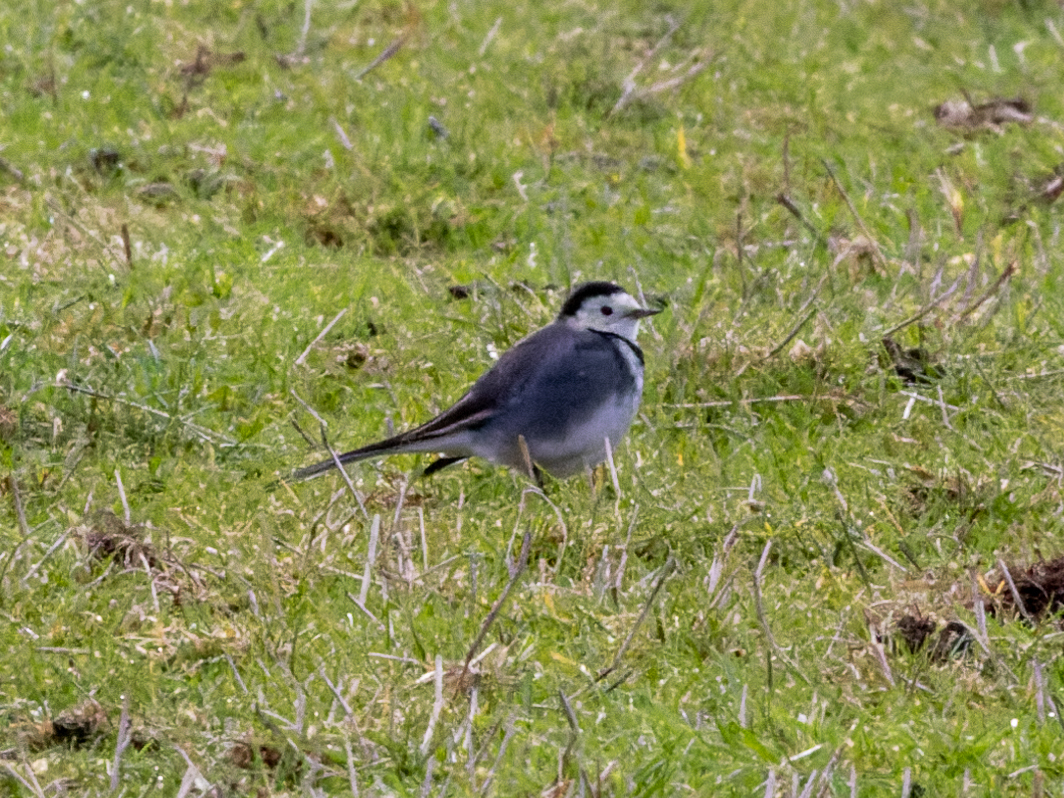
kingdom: Animalia
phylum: Chordata
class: Aves
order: Passeriformes
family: Motacillidae
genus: Motacilla
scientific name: Motacilla alba
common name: White wagtail
